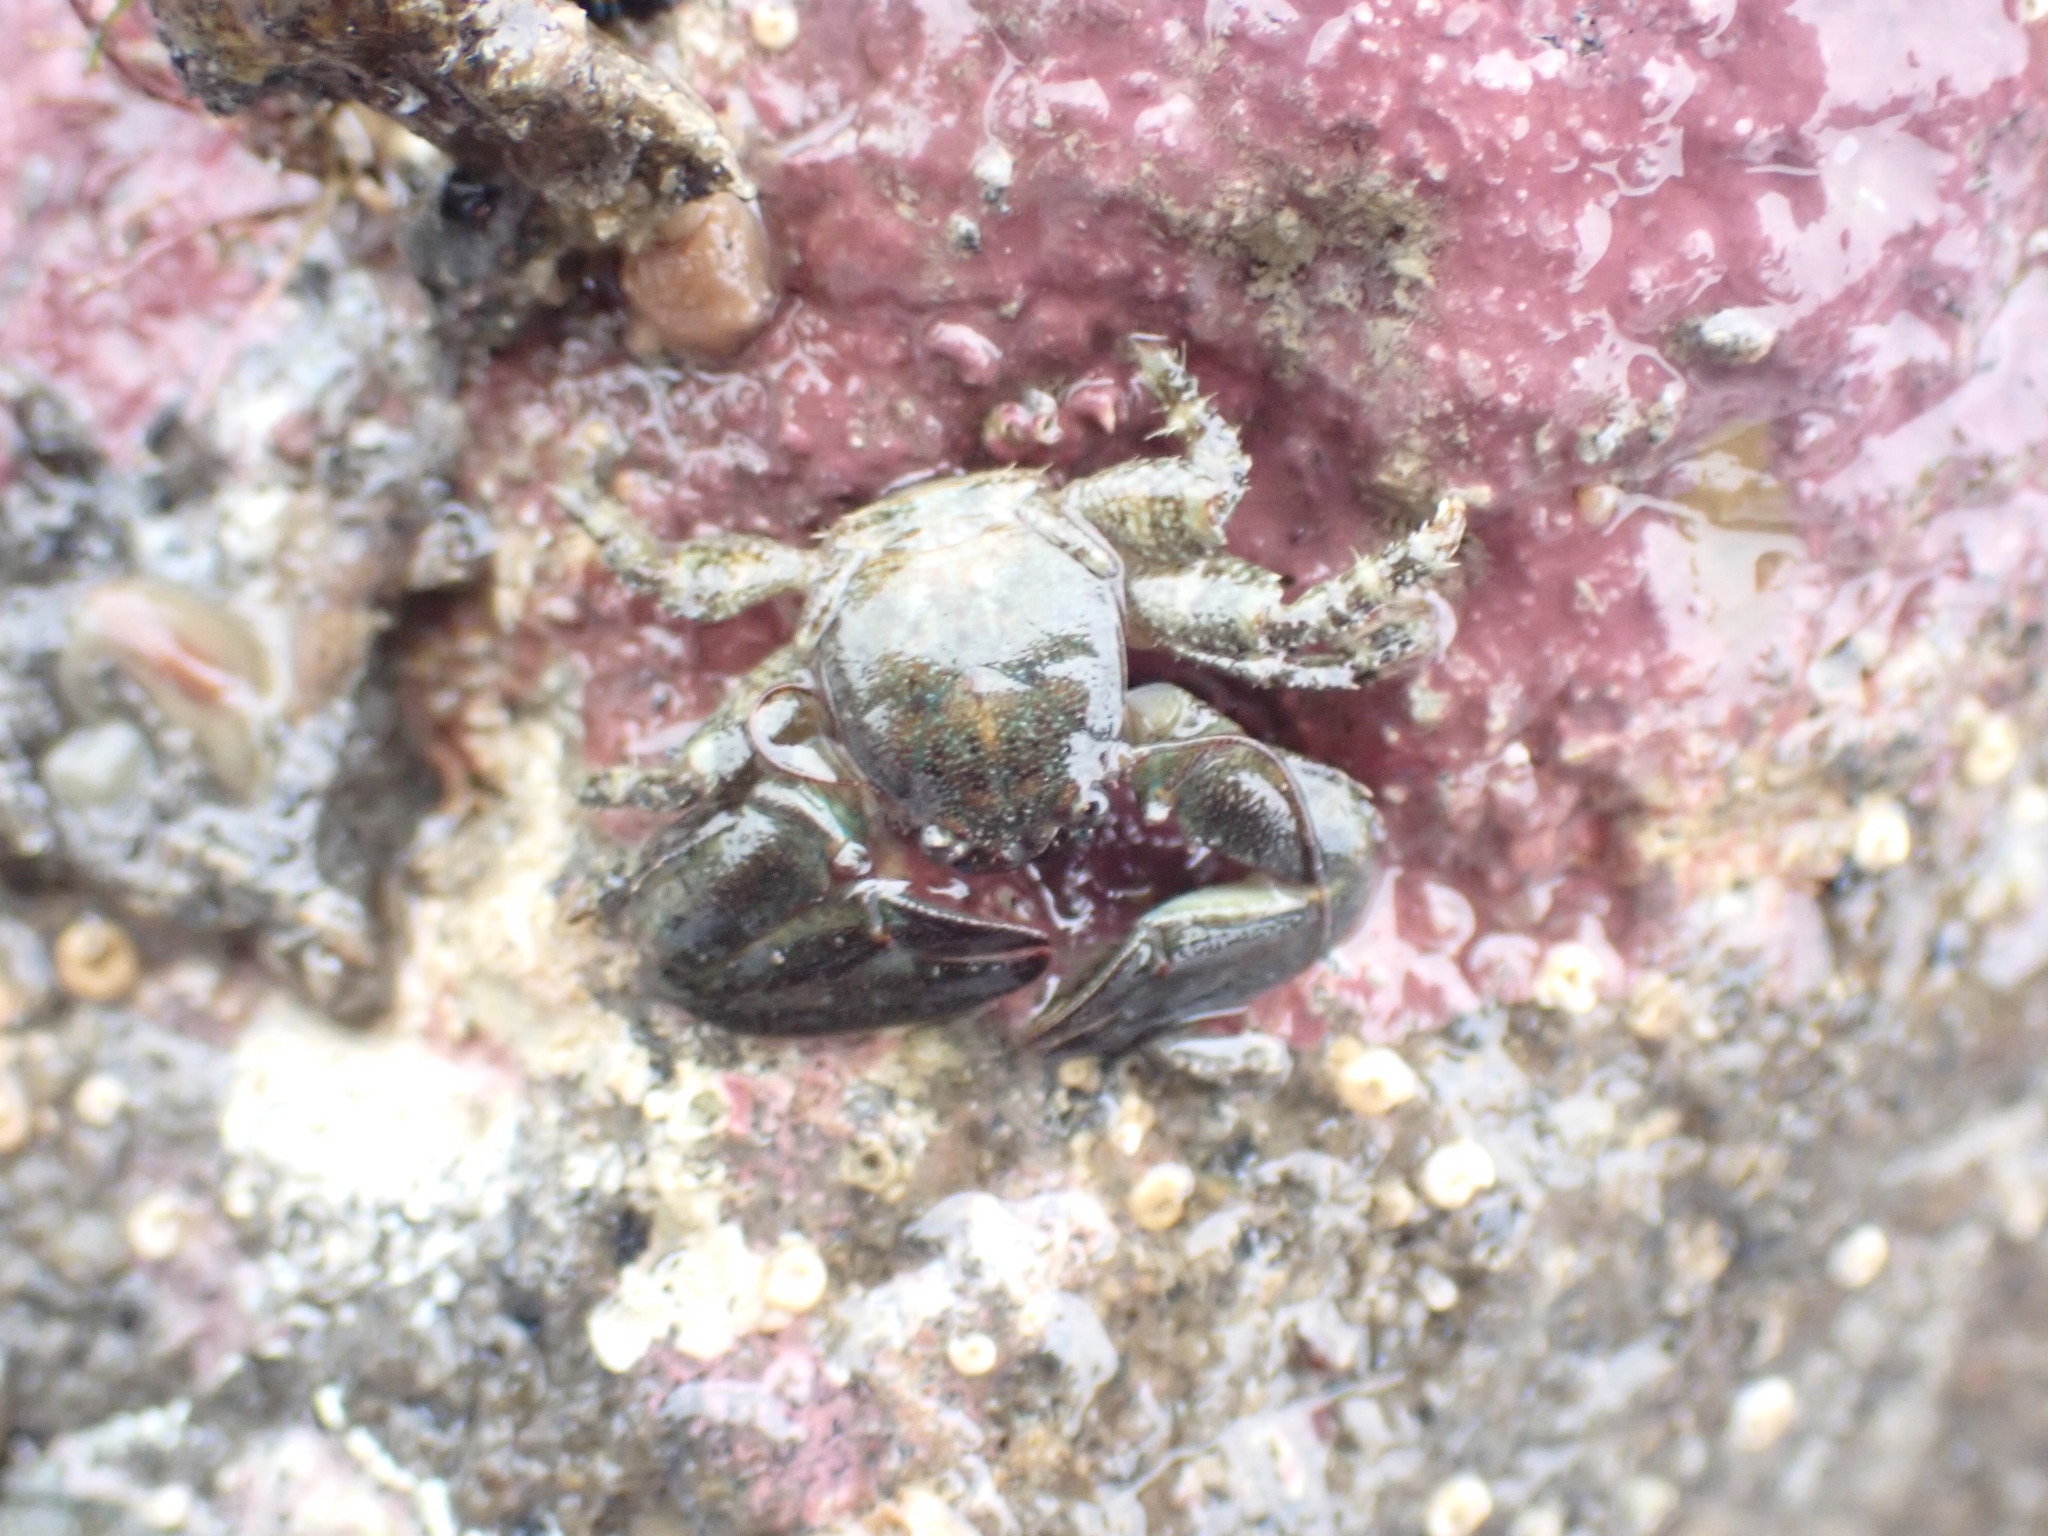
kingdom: Animalia
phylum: Arthropoda
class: Malacostraca
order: Decapoda
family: Porcellanidae
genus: Petrolisthes
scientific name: Petrolisthes elongatus
